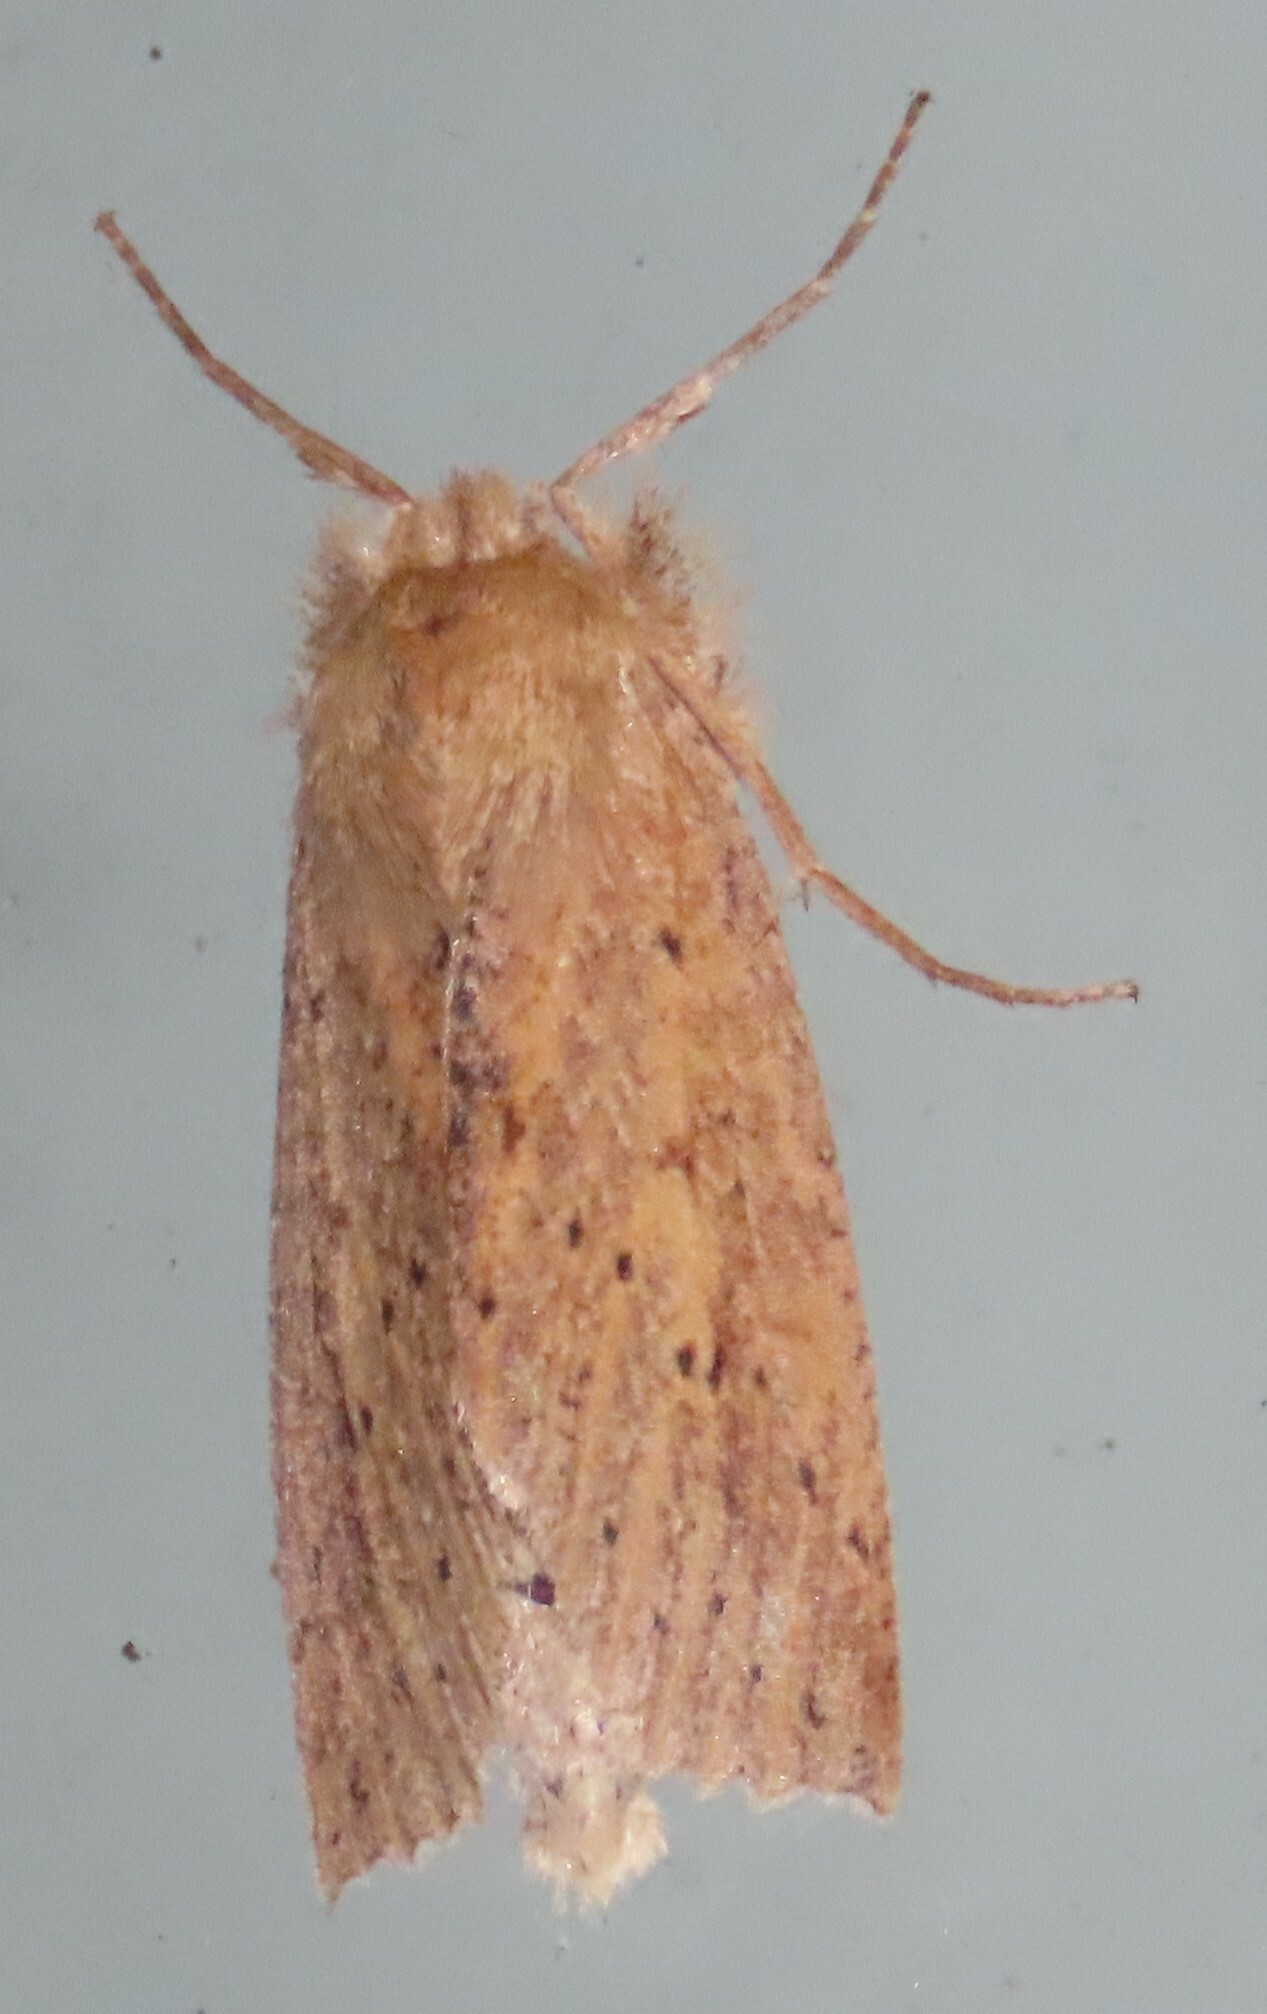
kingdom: Animalia
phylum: Arthropoda
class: Insecta
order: Lepidoptera
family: Geometridae
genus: Declana
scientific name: Declana leptomera
